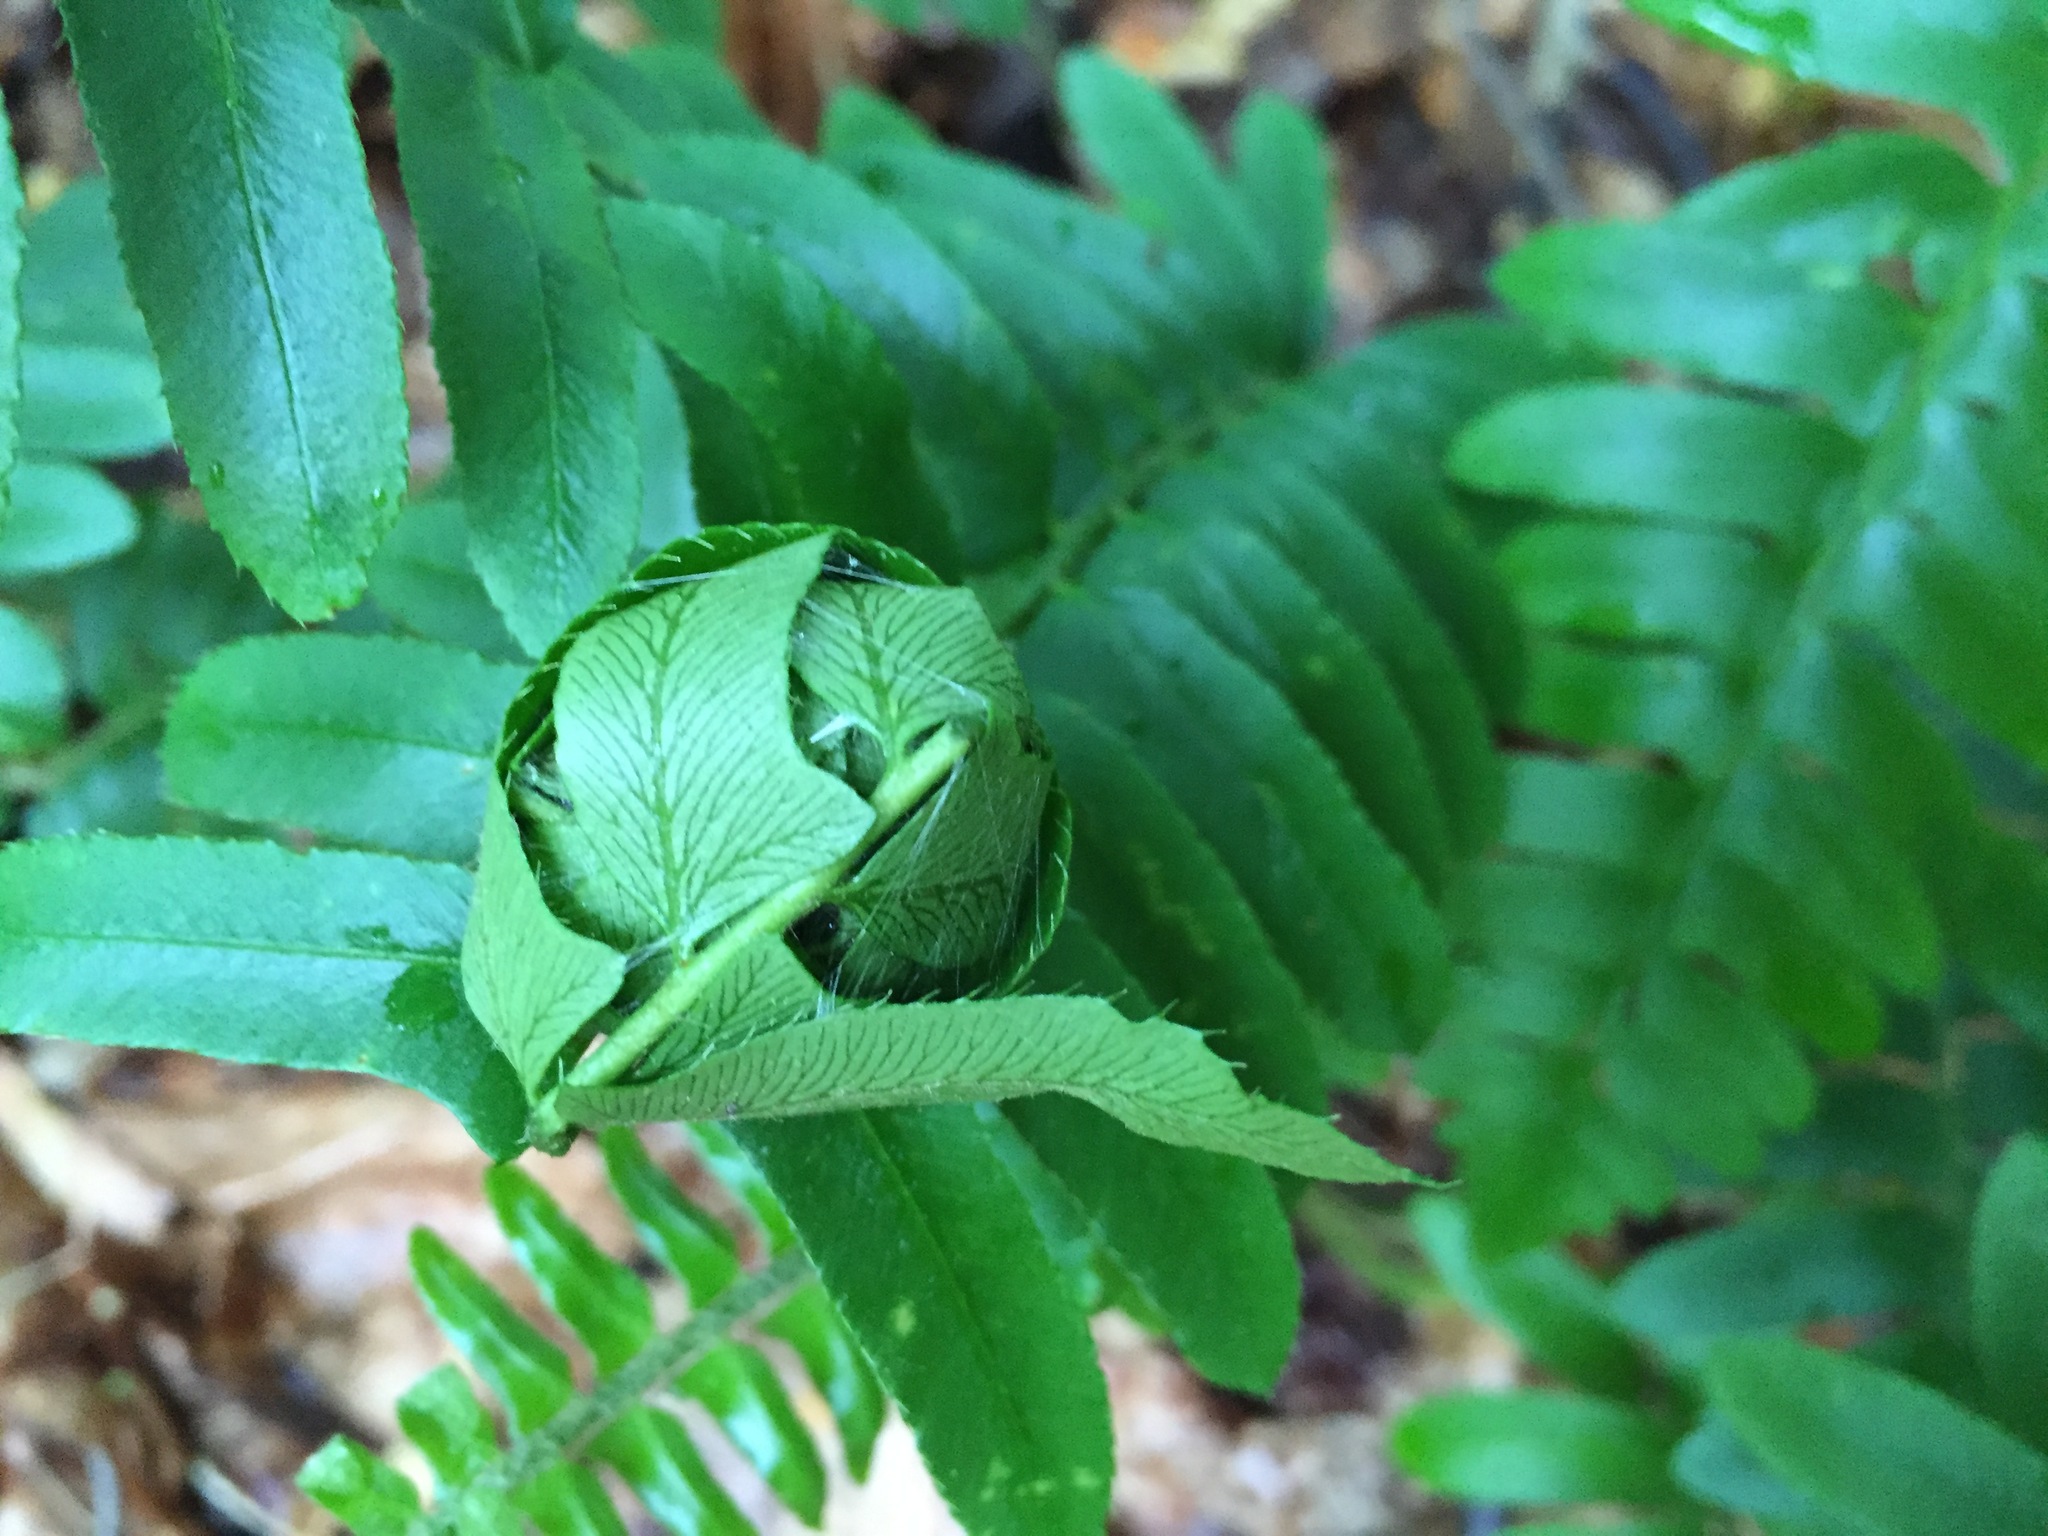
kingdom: Plantae
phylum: Tracheophyta
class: Polypodiopsida
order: Polypodiales
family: Dryopteridaceae
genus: Polystichum
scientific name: Polystichum acrostichoides
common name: Christmas fern
